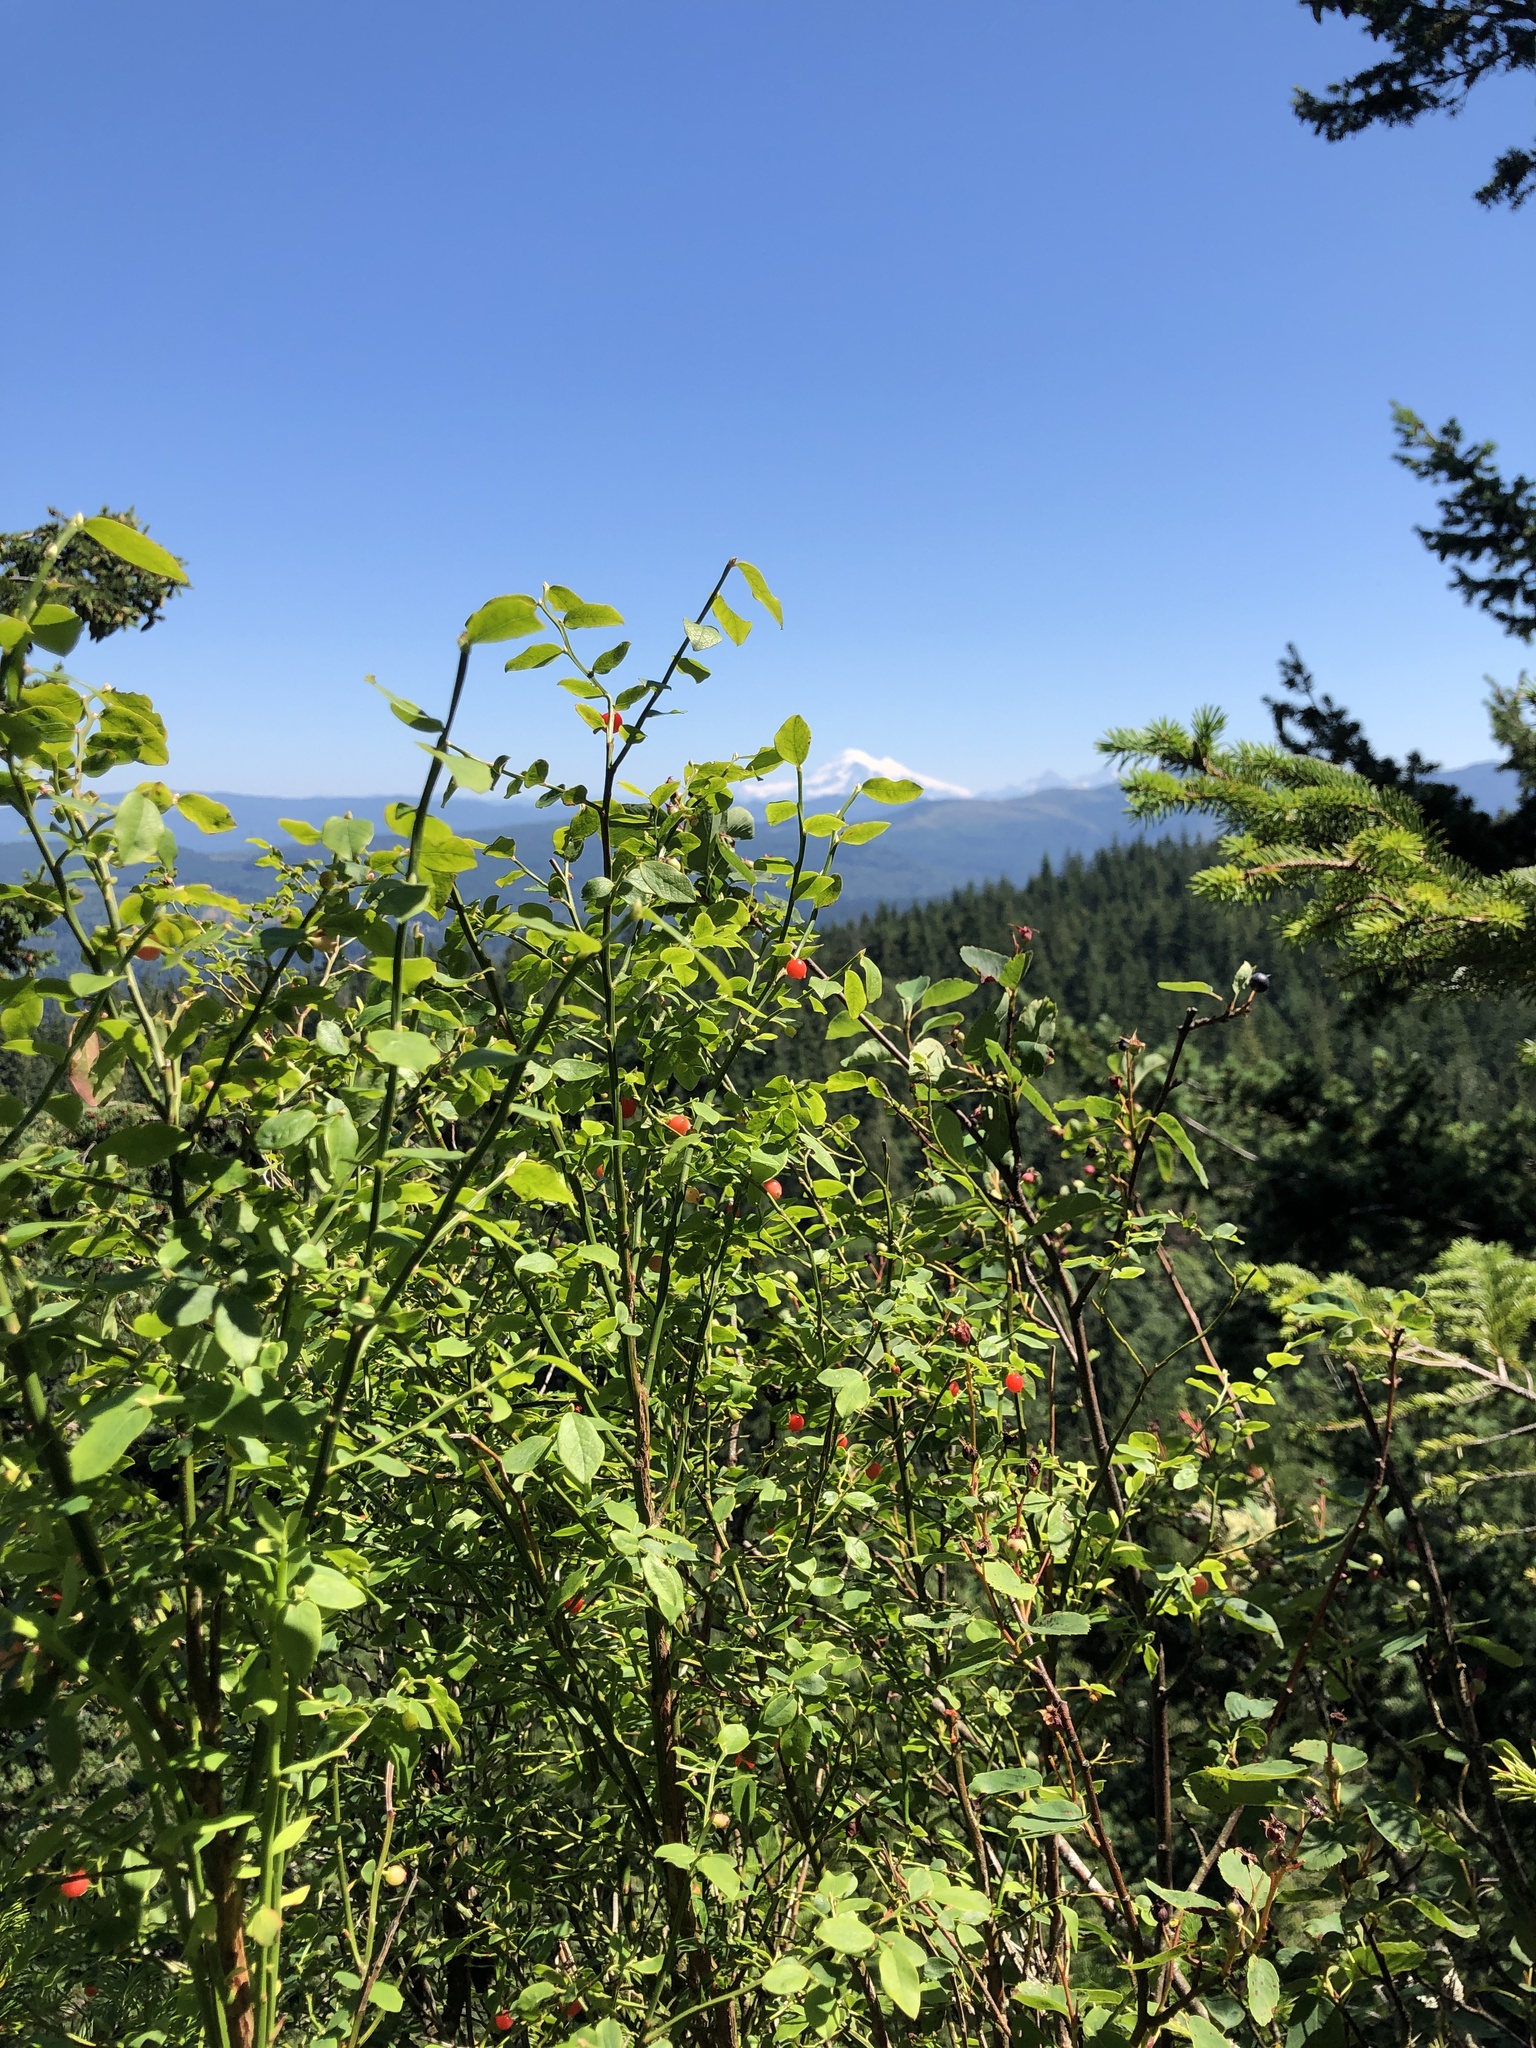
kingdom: Plantae
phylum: Tracheophyta
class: Magnoliopsida
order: Ericales
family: Ericaceae
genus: Vaccinium
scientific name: Vaccinium parvifolium
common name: Red-huckleberry
